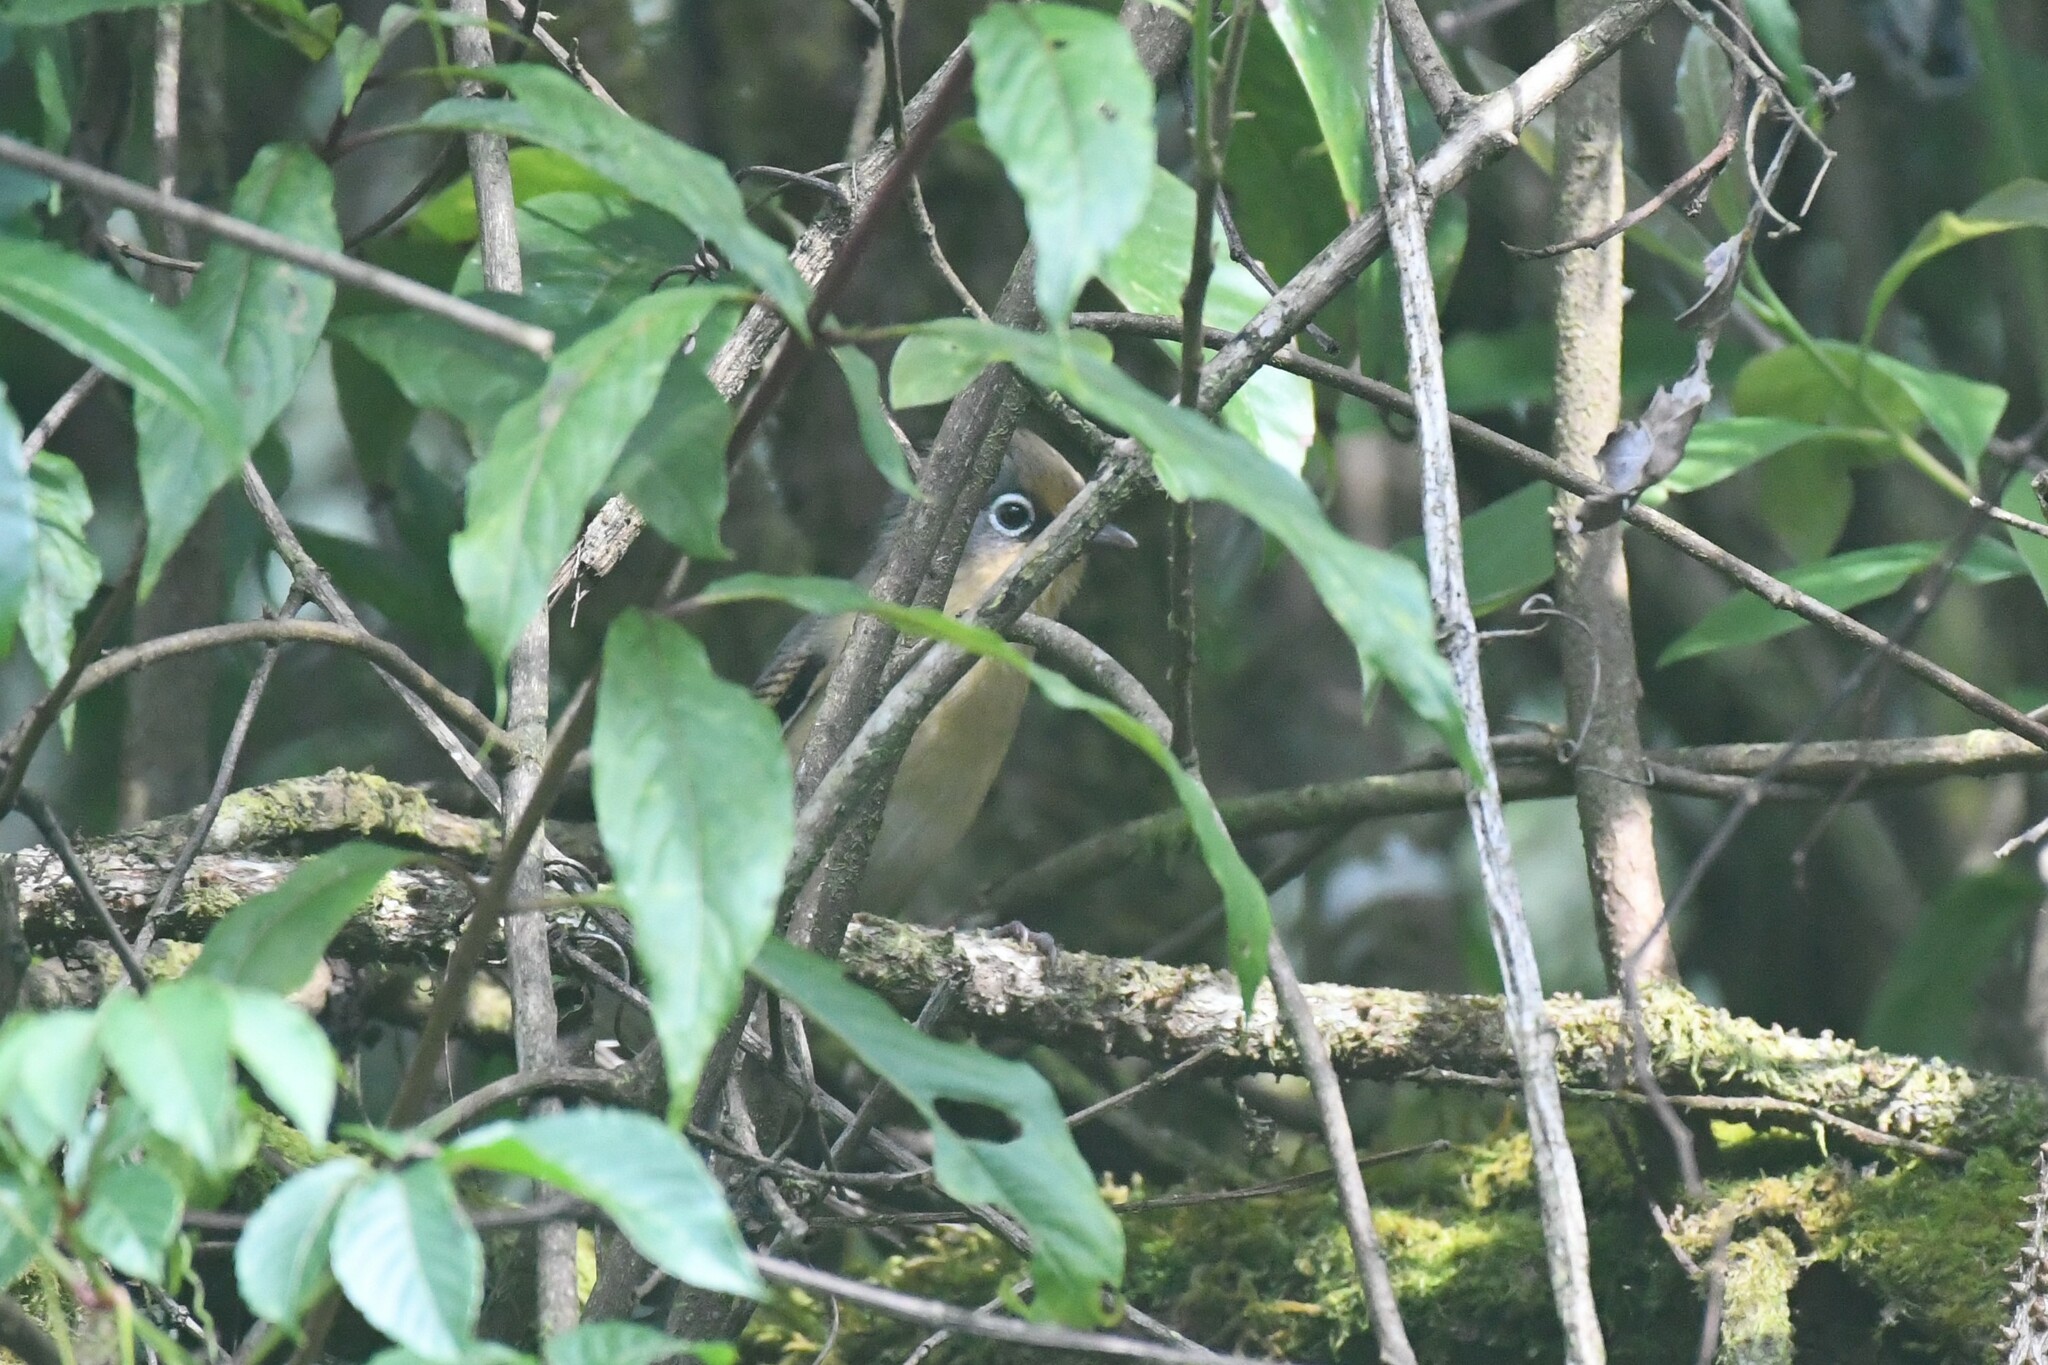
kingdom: Animalia
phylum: Chordata
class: Aves
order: Passeriformes
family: Leiothrichidae
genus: Actinodura
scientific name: Actinodura ramsayi
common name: Spectacled barwing
